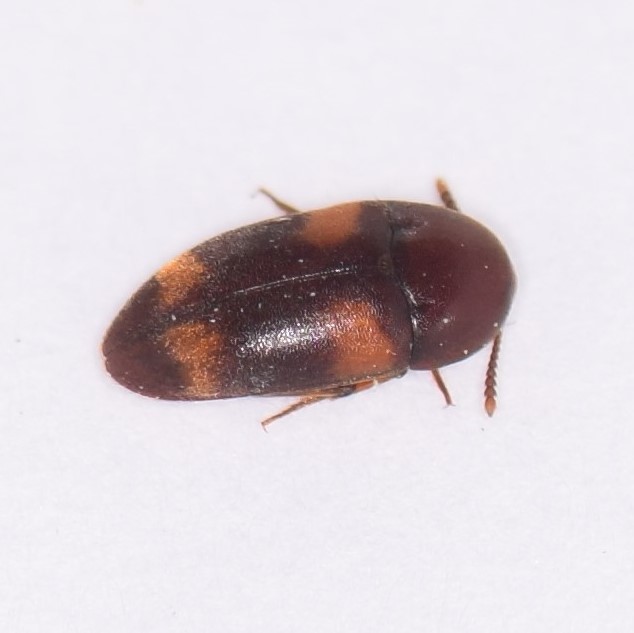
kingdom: Animalia
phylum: Arthropoda
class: Insecta
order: Coleoptera
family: Tetratomidae
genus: Holostrophus
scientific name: Holostrophus bifasciatus
